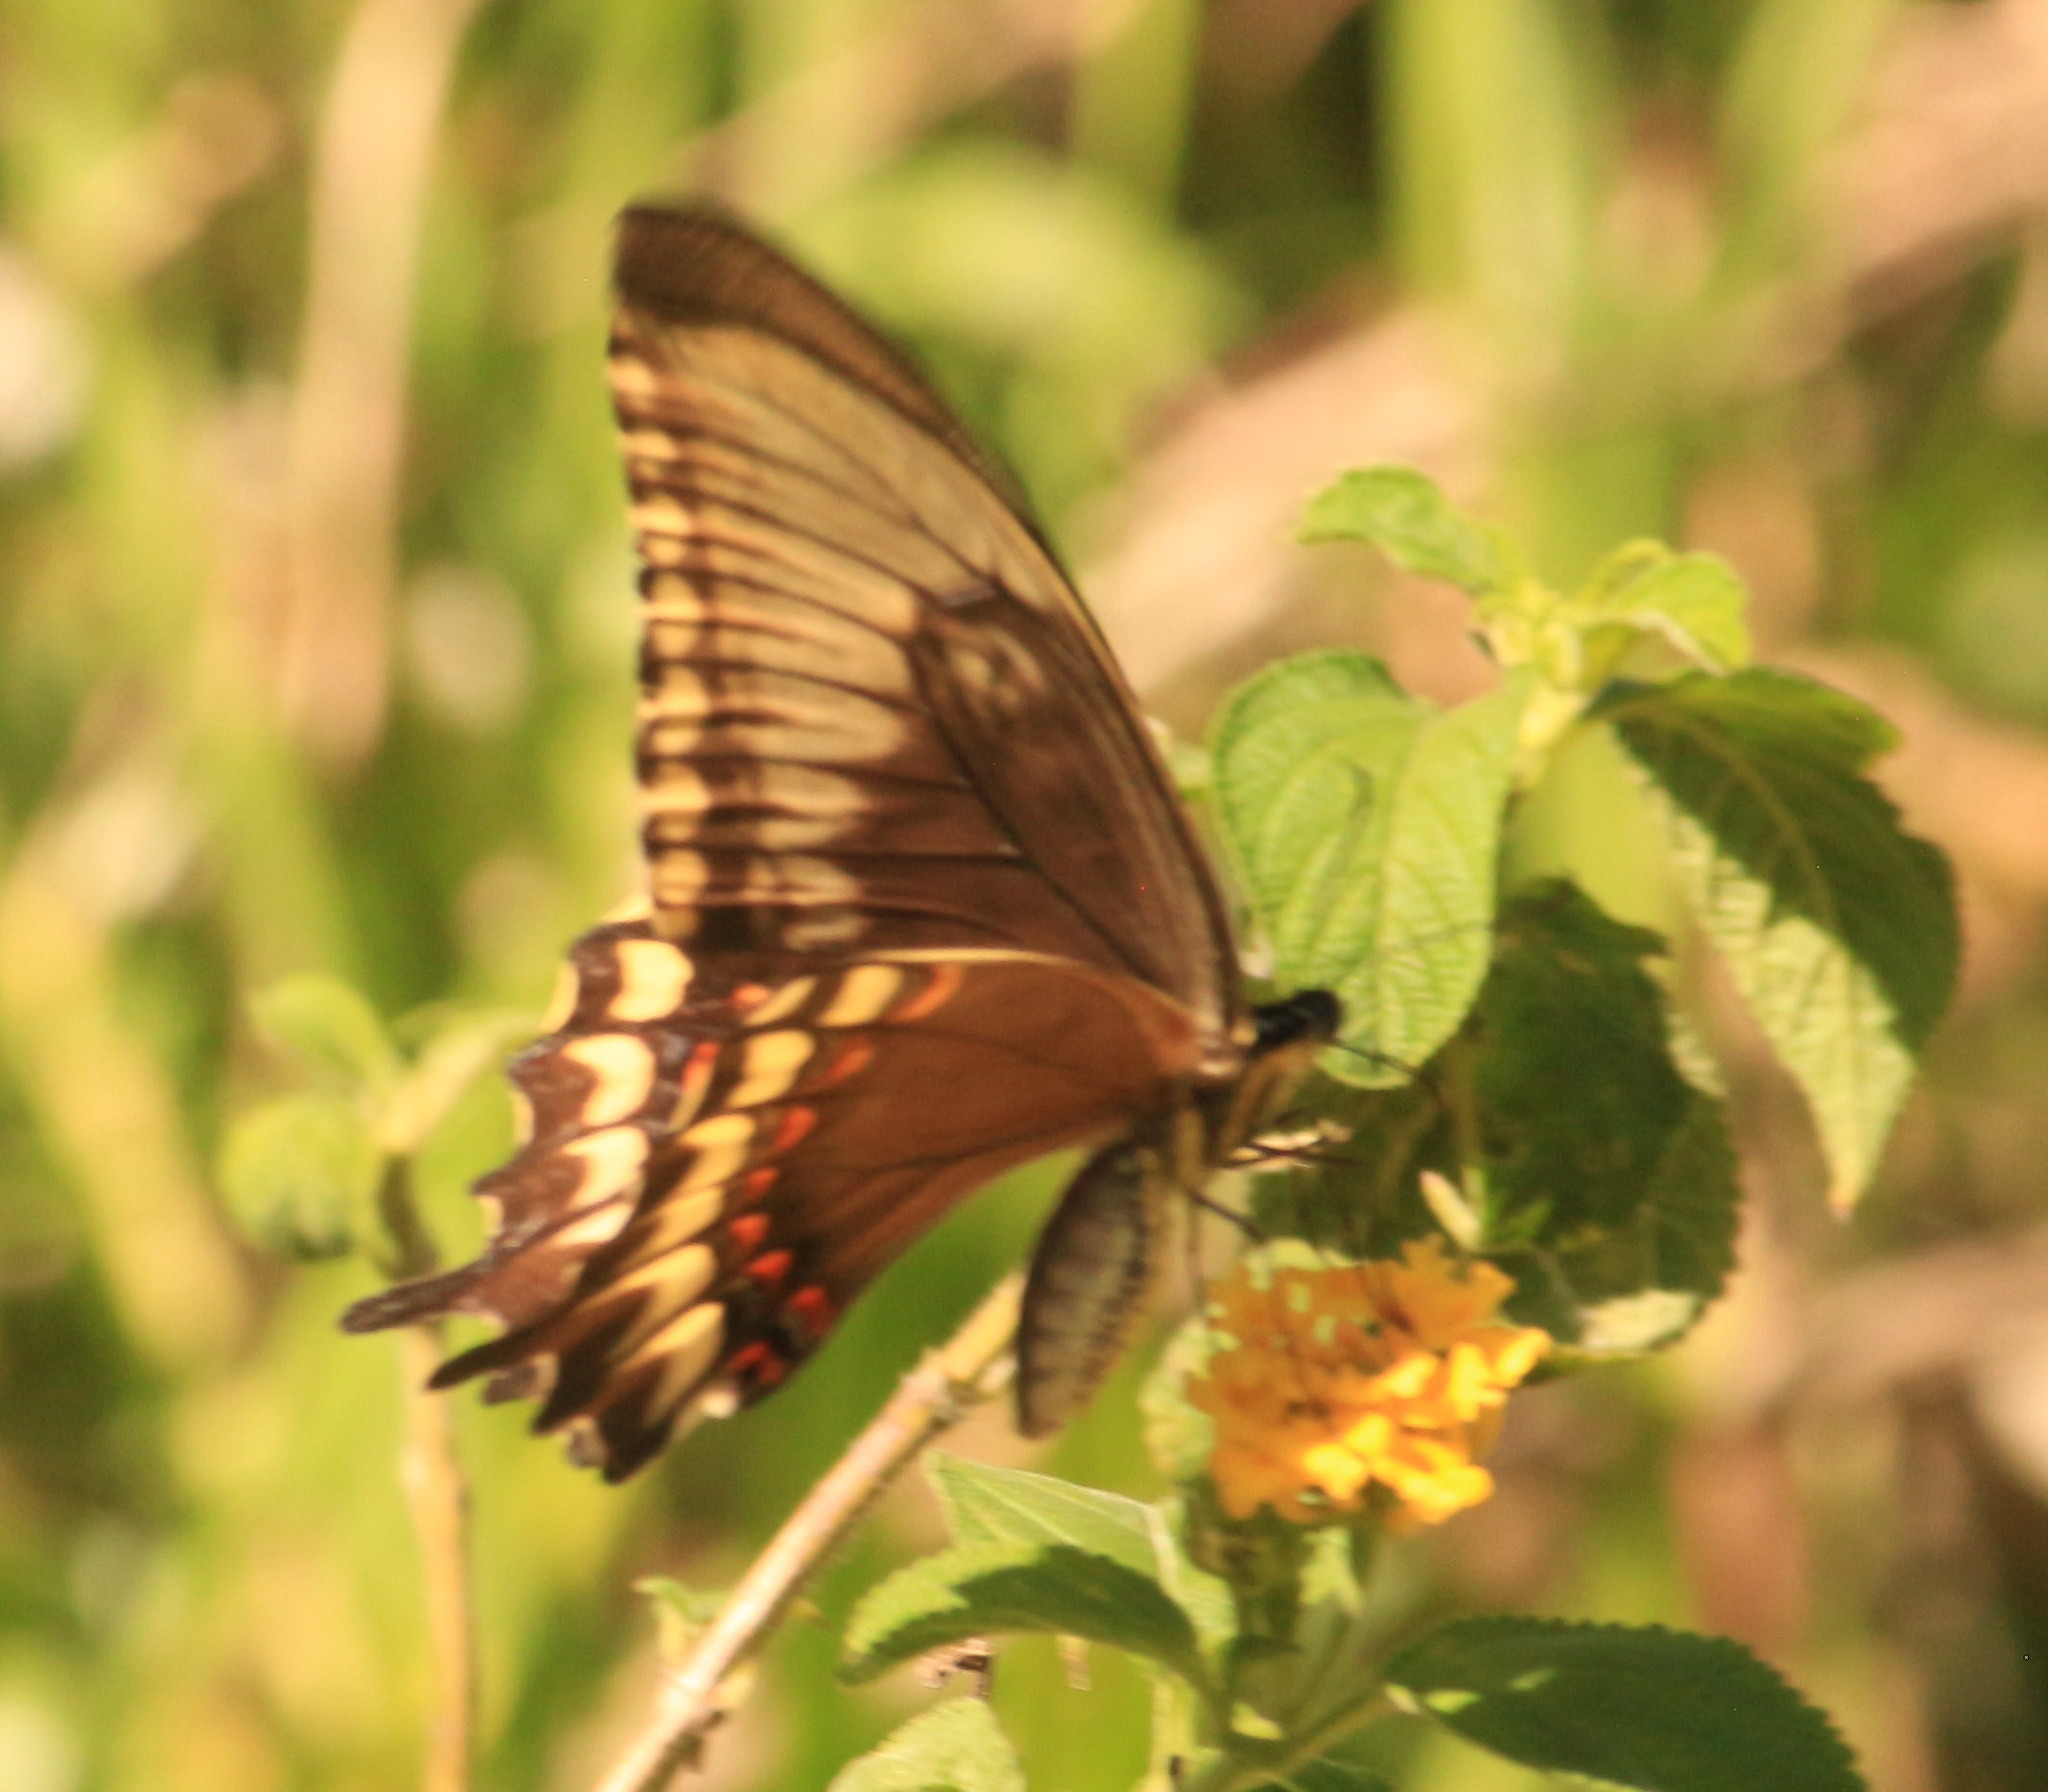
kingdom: Animalia
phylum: Arthropoda
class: Insecta
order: Lepidoptera
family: Papilionidae
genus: Papilio
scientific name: Papilio astyalus
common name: Astyalus swallowtail
